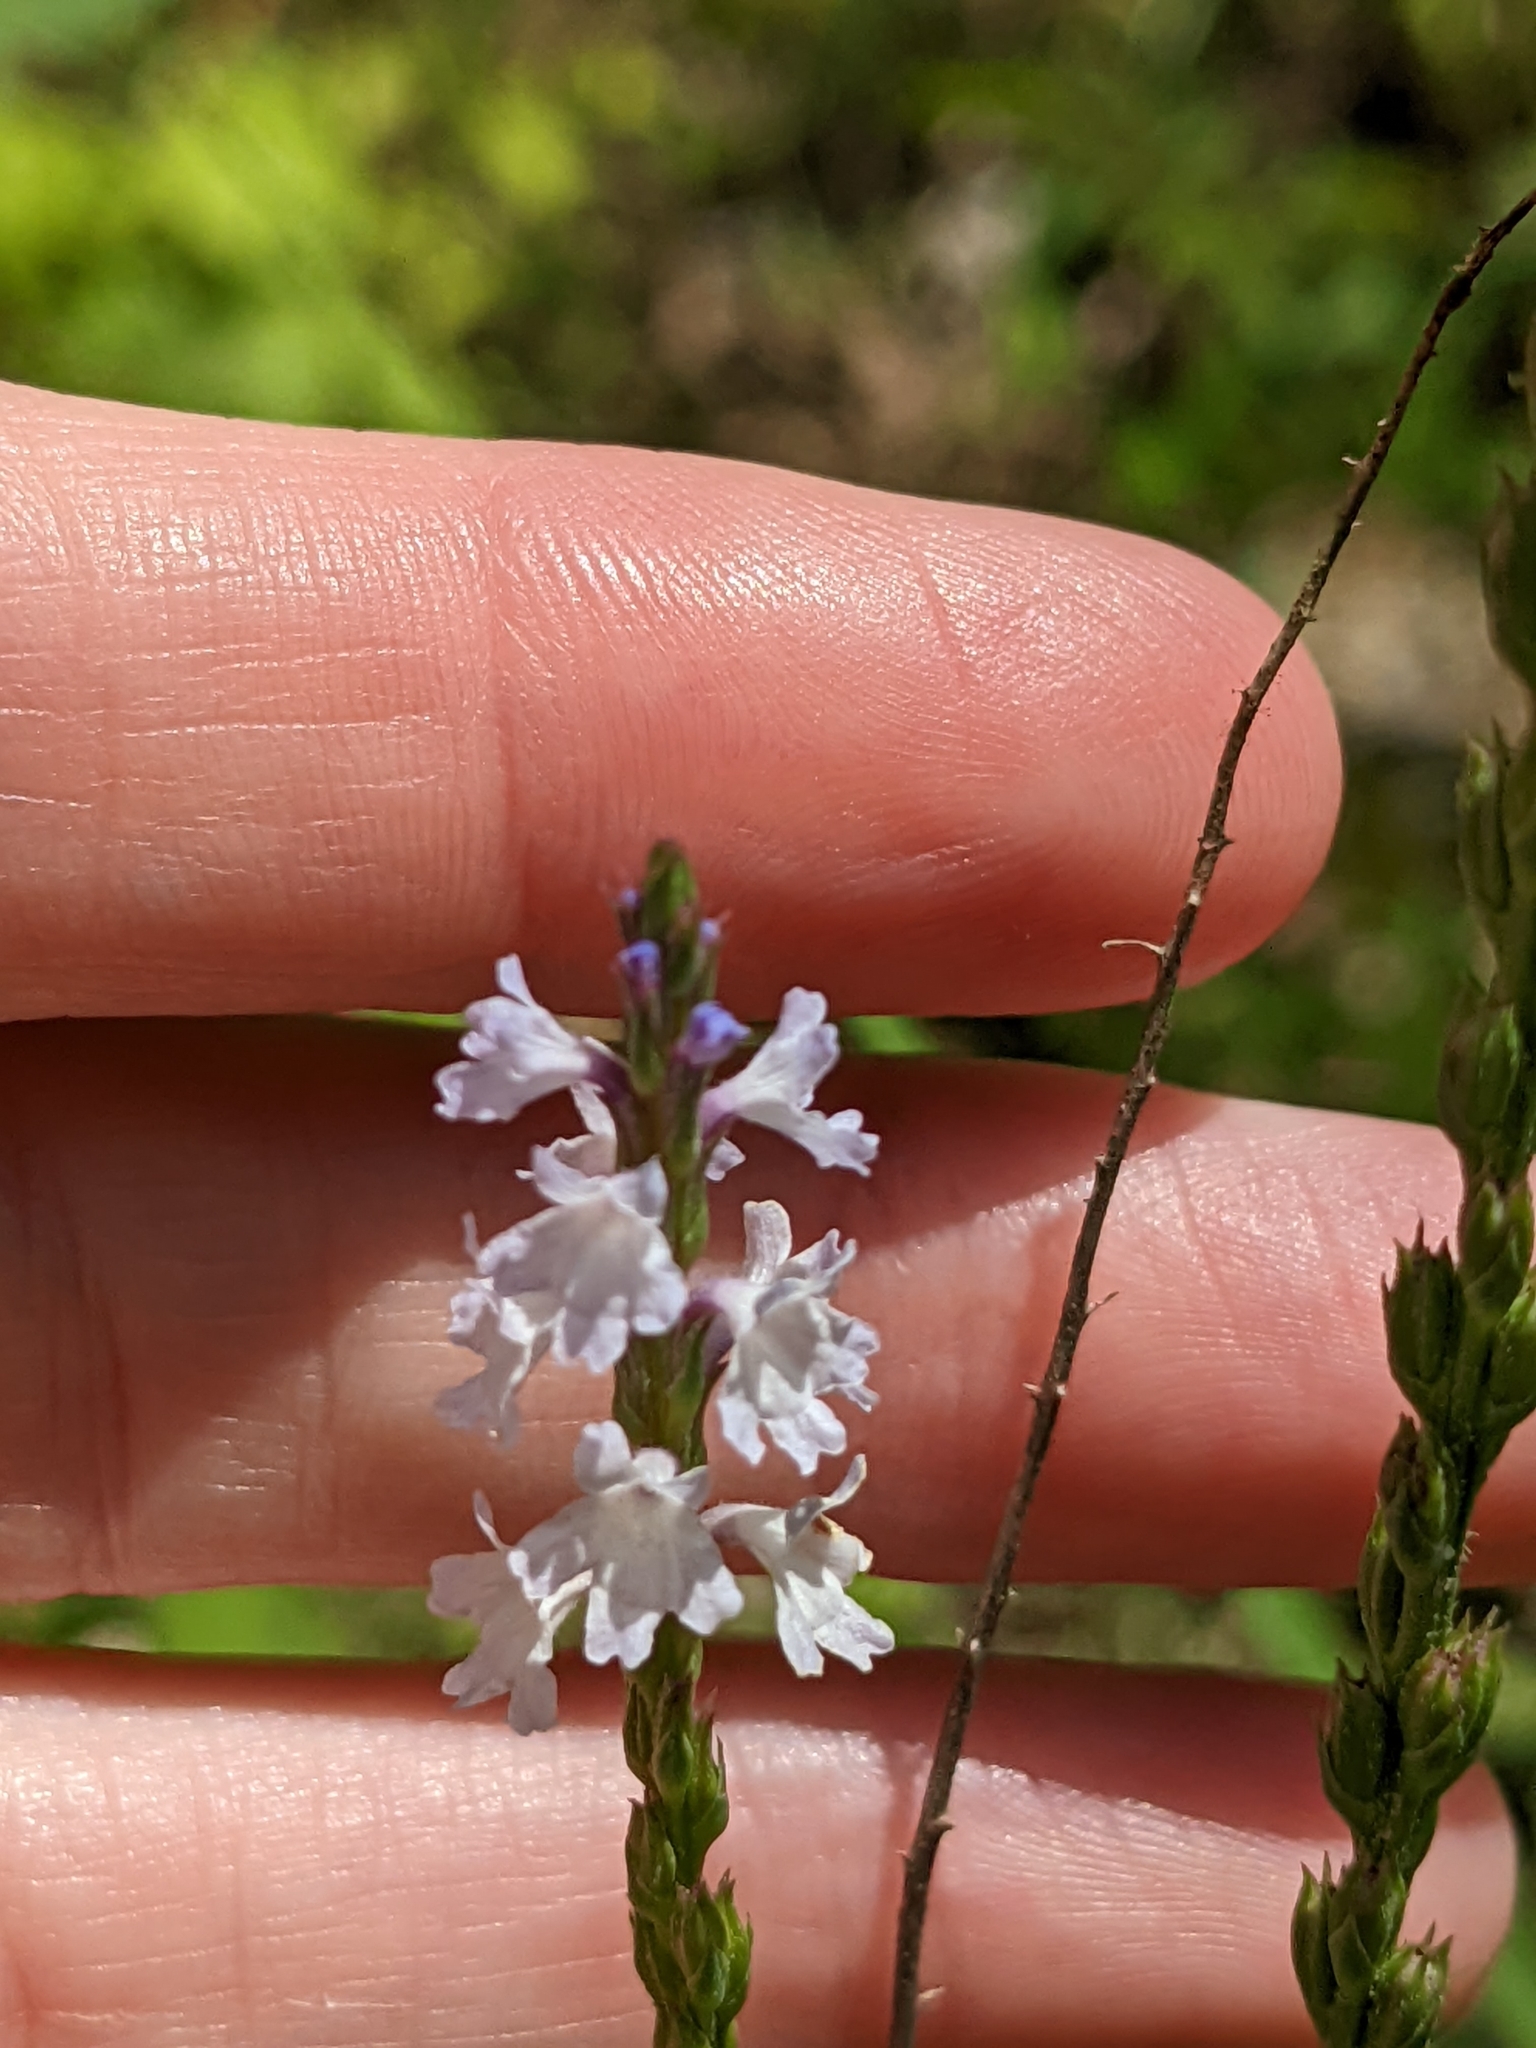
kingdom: Plantae
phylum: Tracheophyta
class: Magnoliopsida
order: Lamiales
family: Verbenaceae
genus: Verbena
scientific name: Verbena simplex
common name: Narrow-leaf vervain
